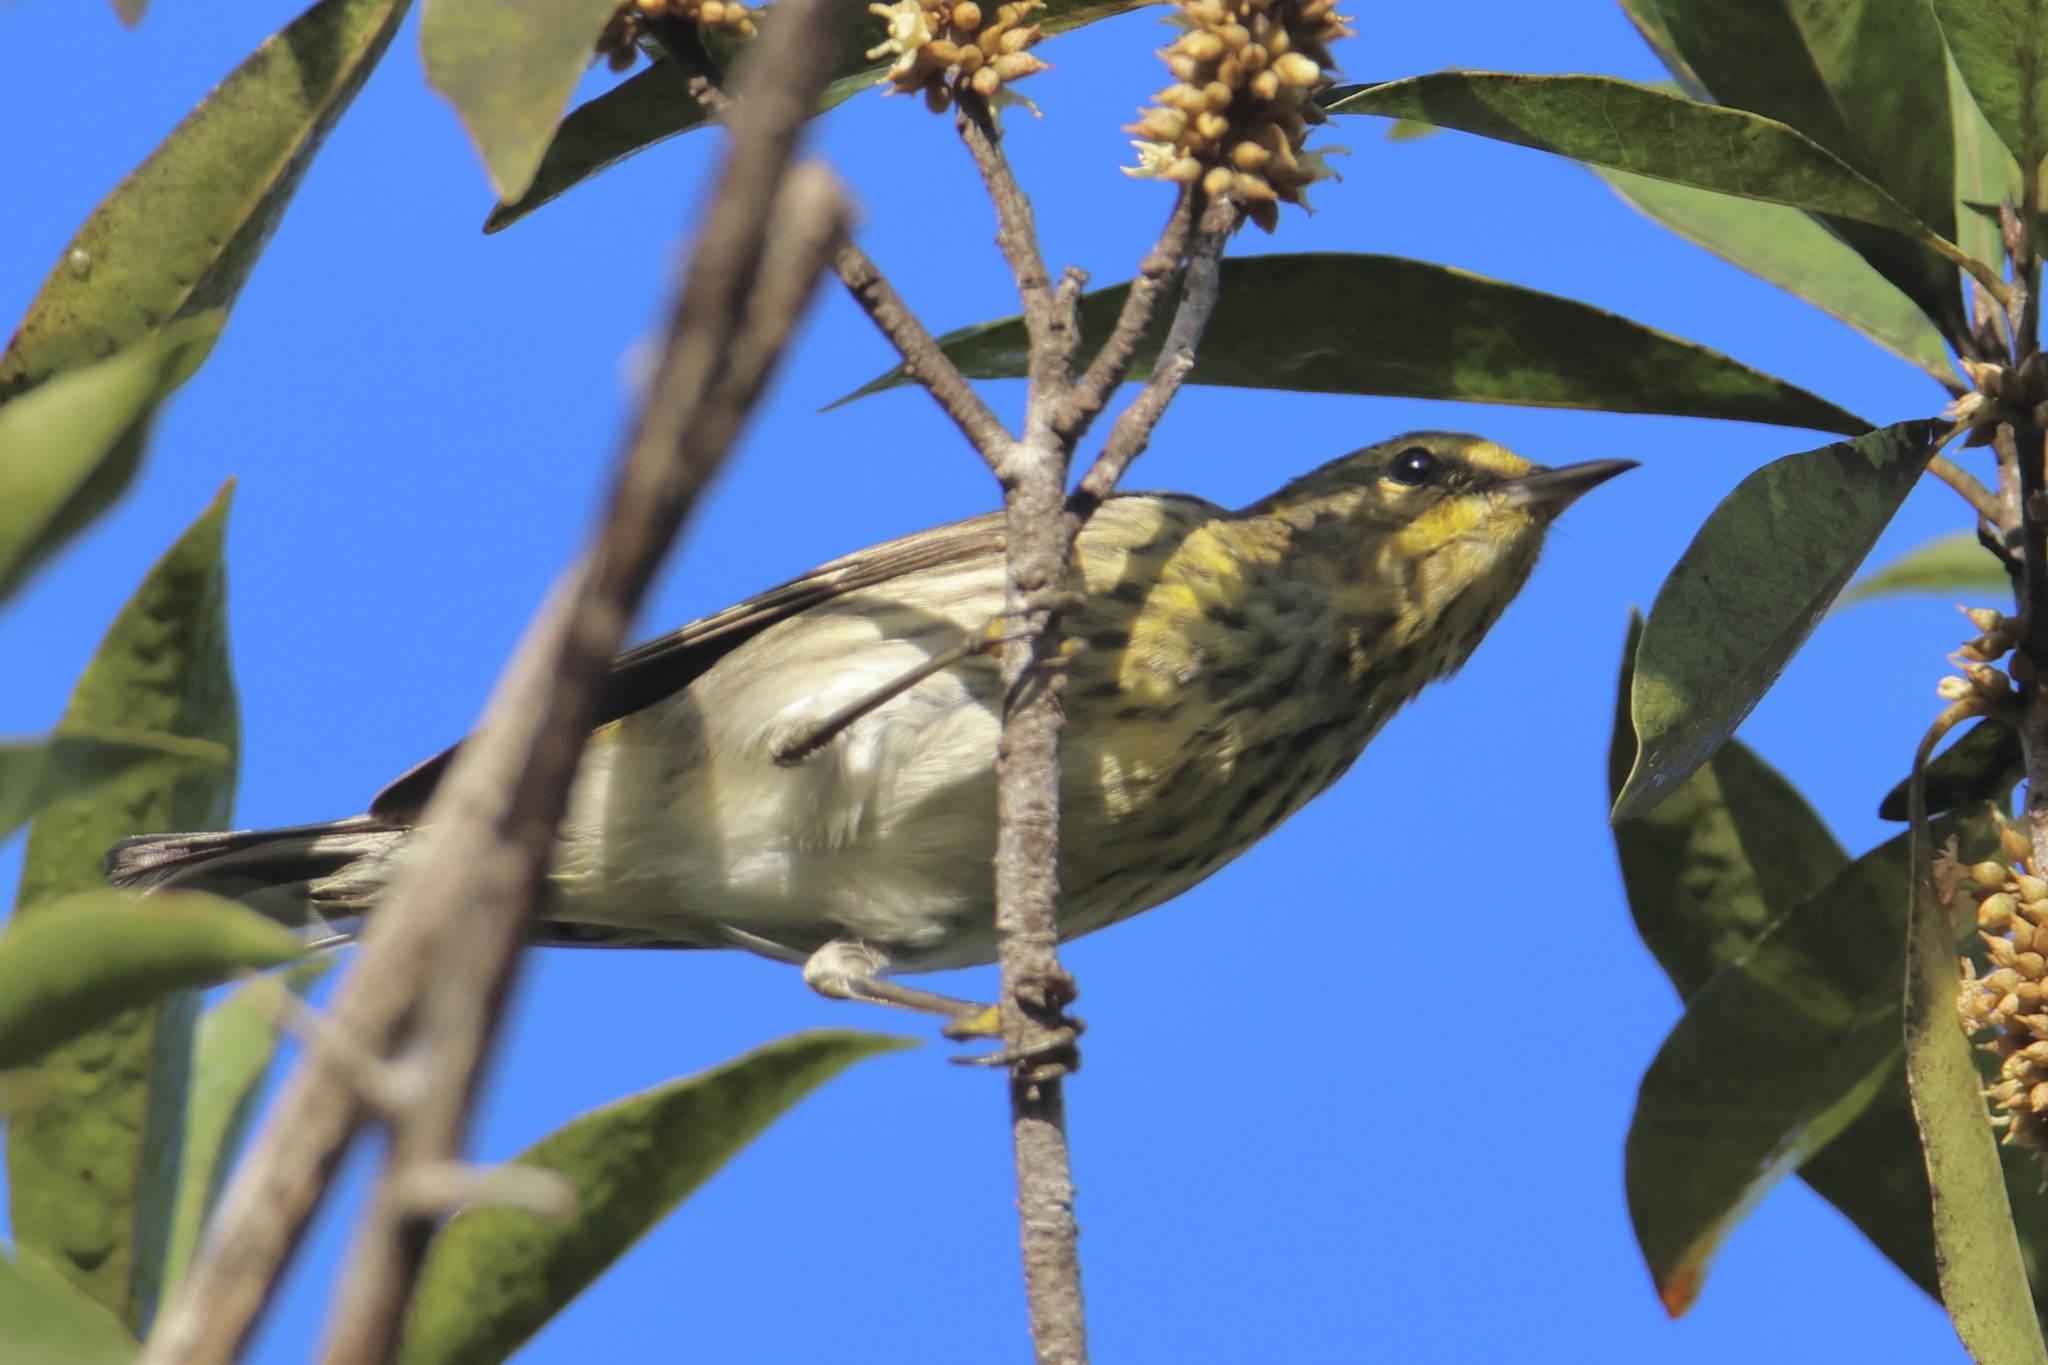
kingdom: Animalia
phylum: Chordata
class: Aves
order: Passeriformes
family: Parulidae
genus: Setophaga
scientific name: Setophaga tigrina
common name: Cape may warbler
